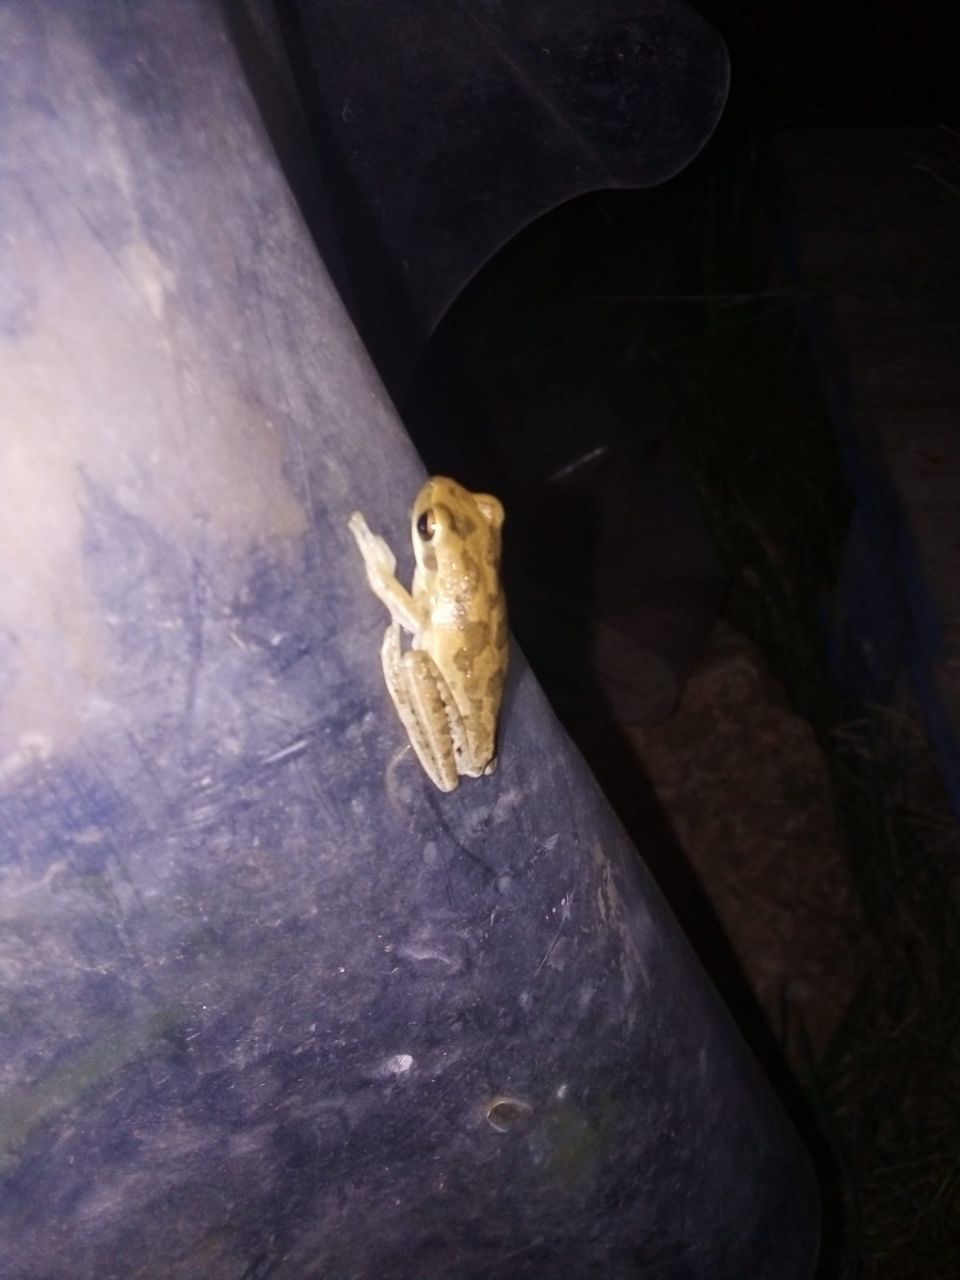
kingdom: Animalia
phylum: Chordata
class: Amphibia
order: Anura
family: Hylidae
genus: Boana
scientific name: Boana pulchella
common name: Montevideo treefrog
